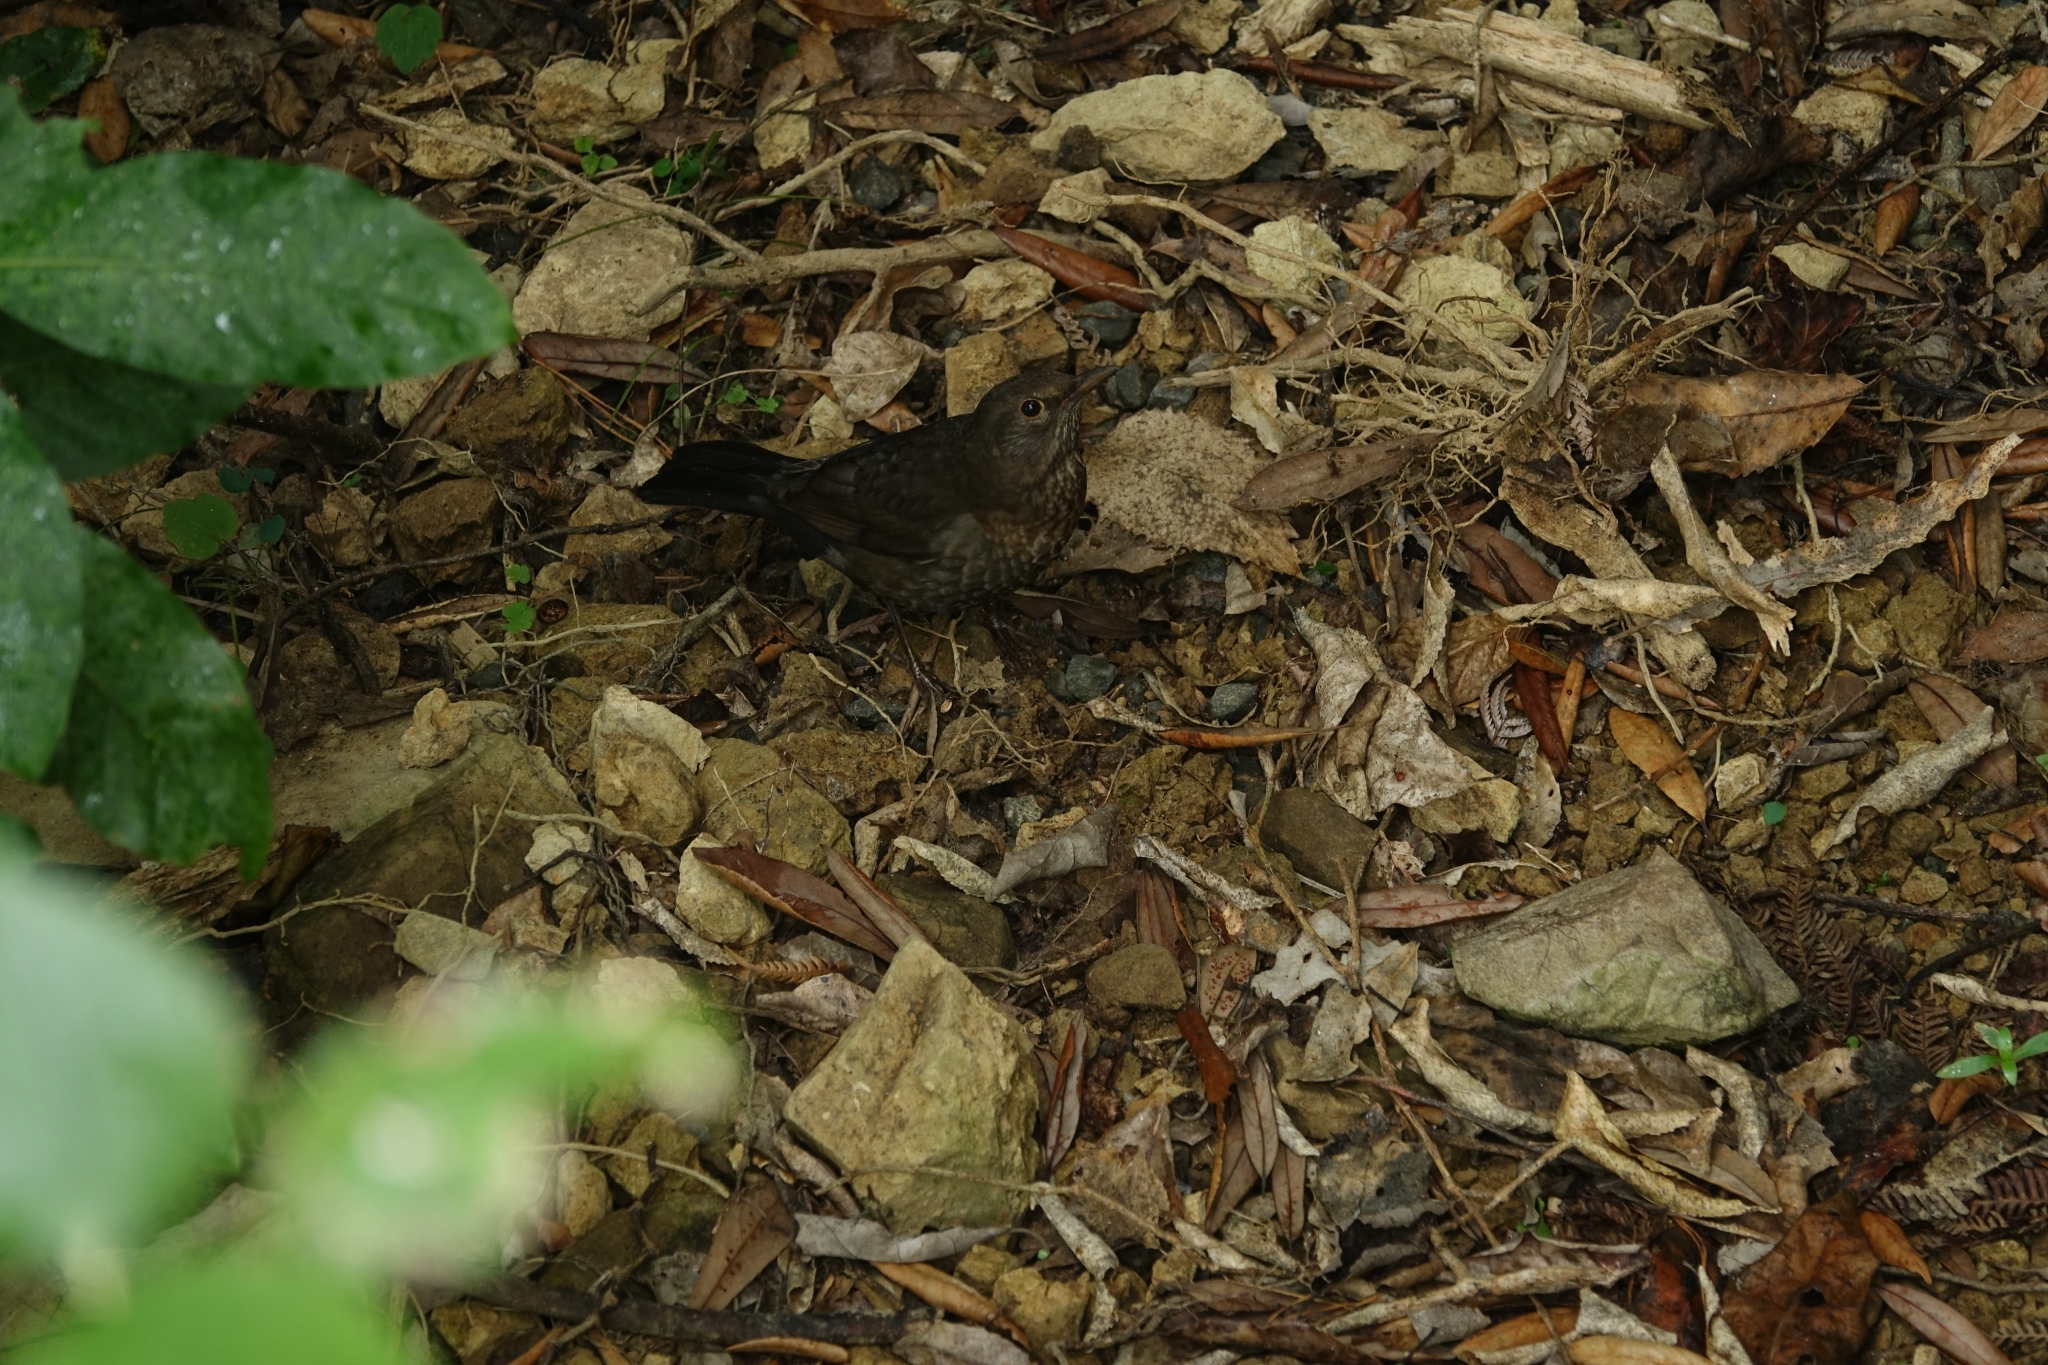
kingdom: Animalia
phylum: Chordata
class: Aves
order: Passeriformes
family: Turdidae
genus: Turdus
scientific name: Turdus merula
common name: Common blackbird
